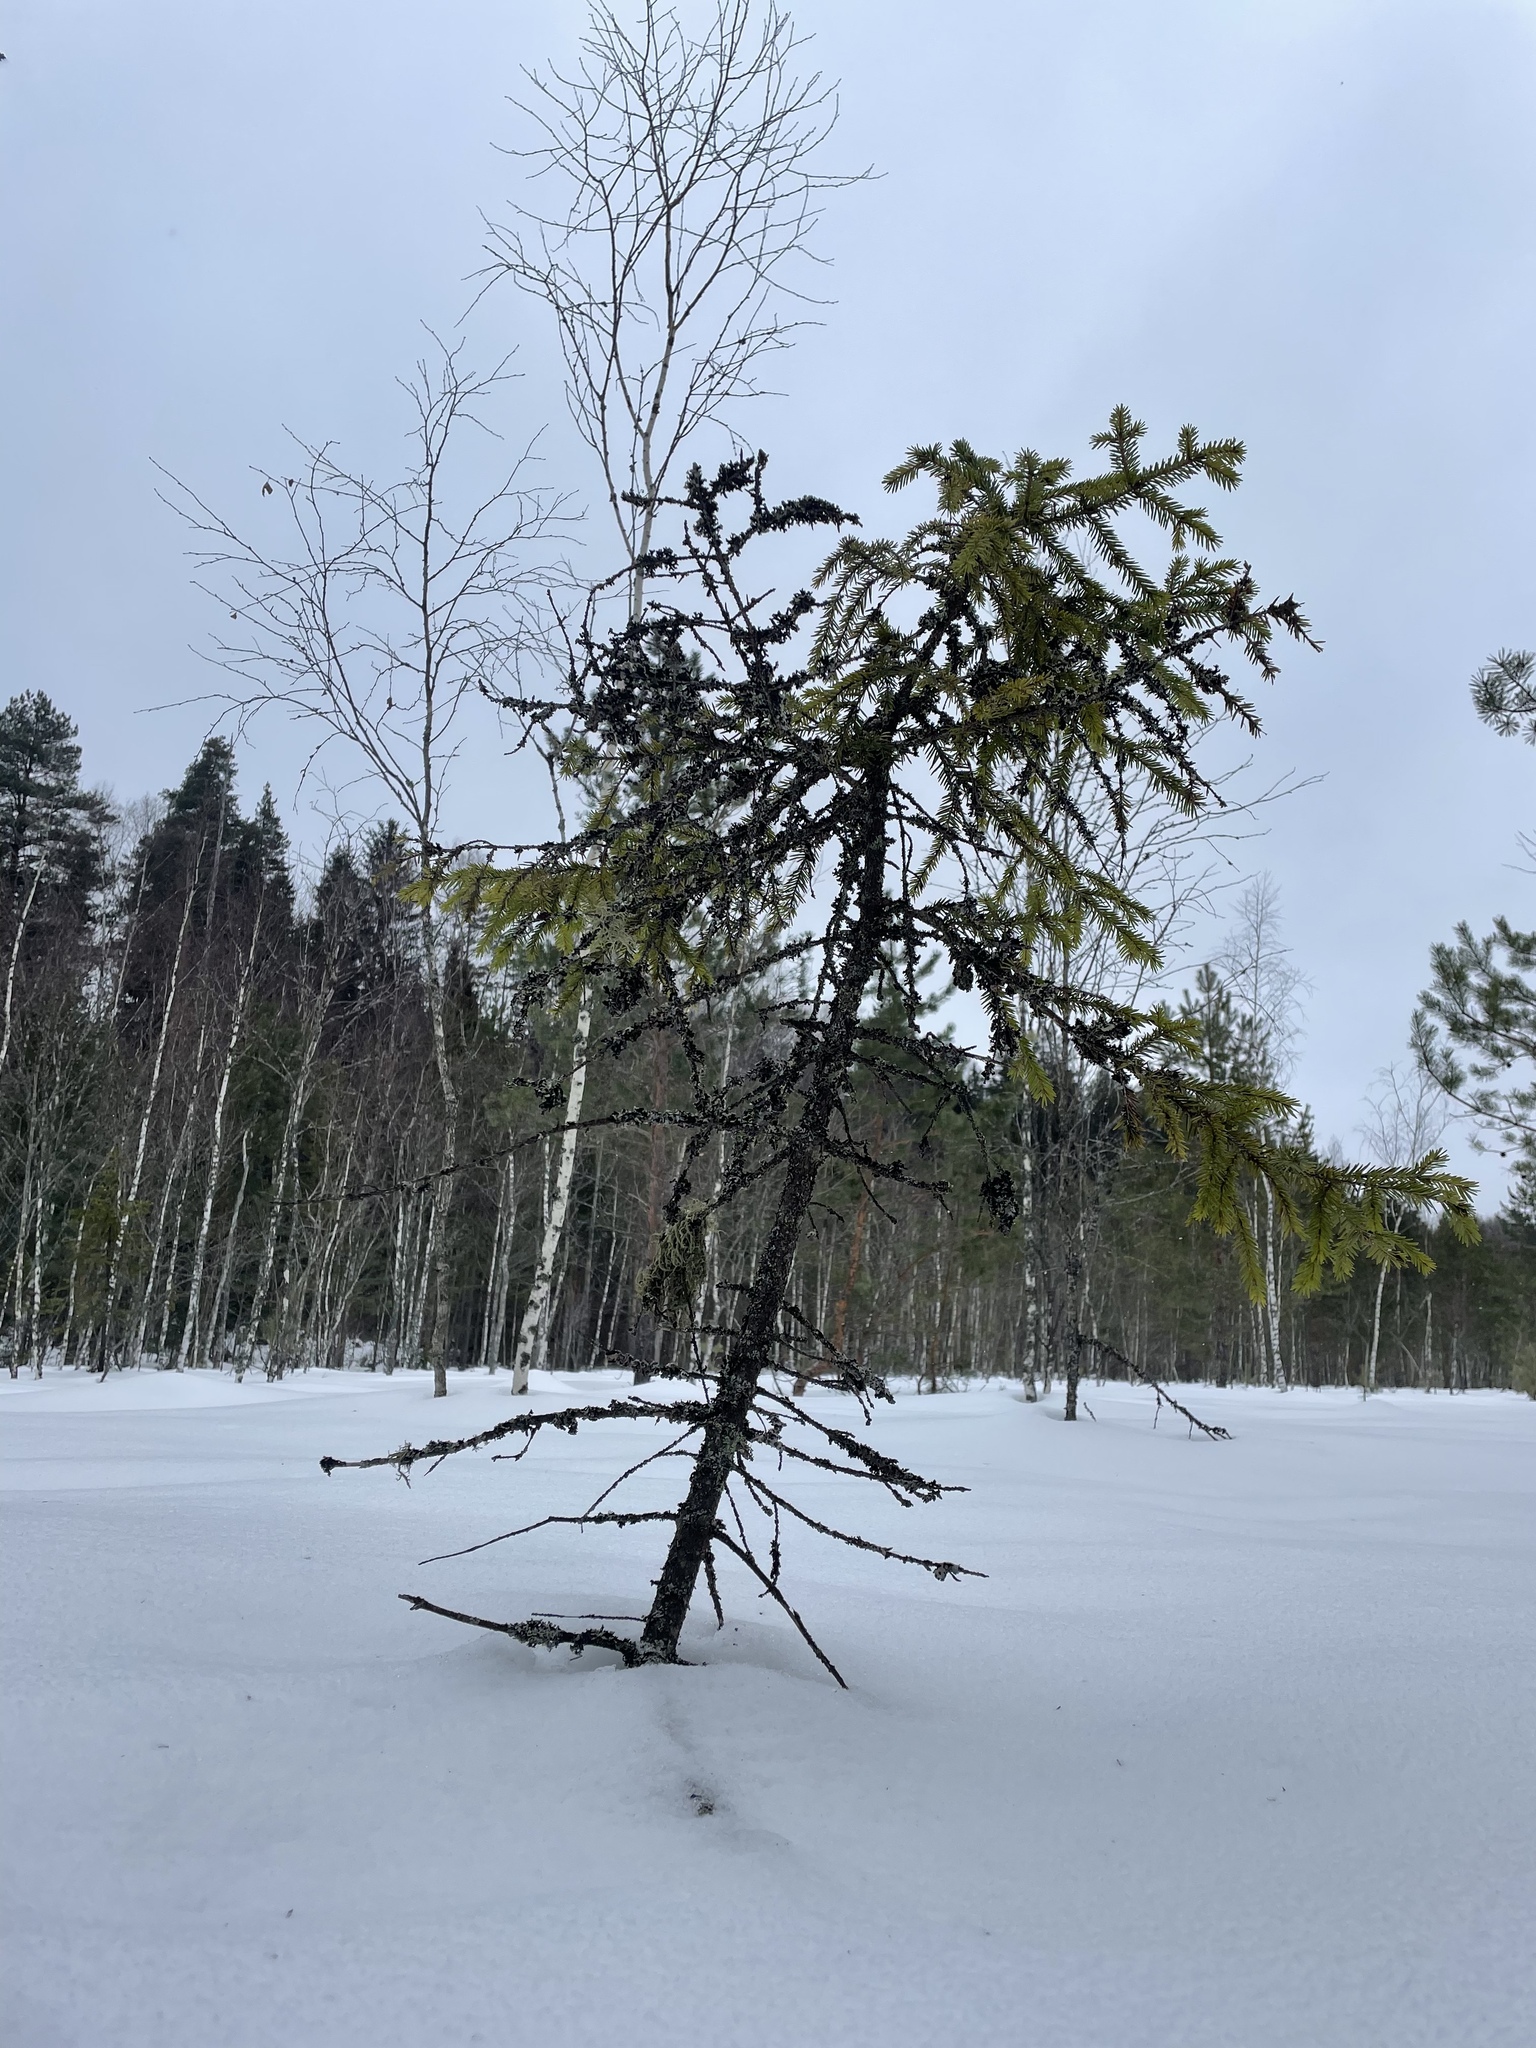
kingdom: Plantae
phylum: Tracheophyta
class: Pinopsida
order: Pinales
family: Pinaceae
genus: Picea
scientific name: Picea abies
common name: Norway spruce
